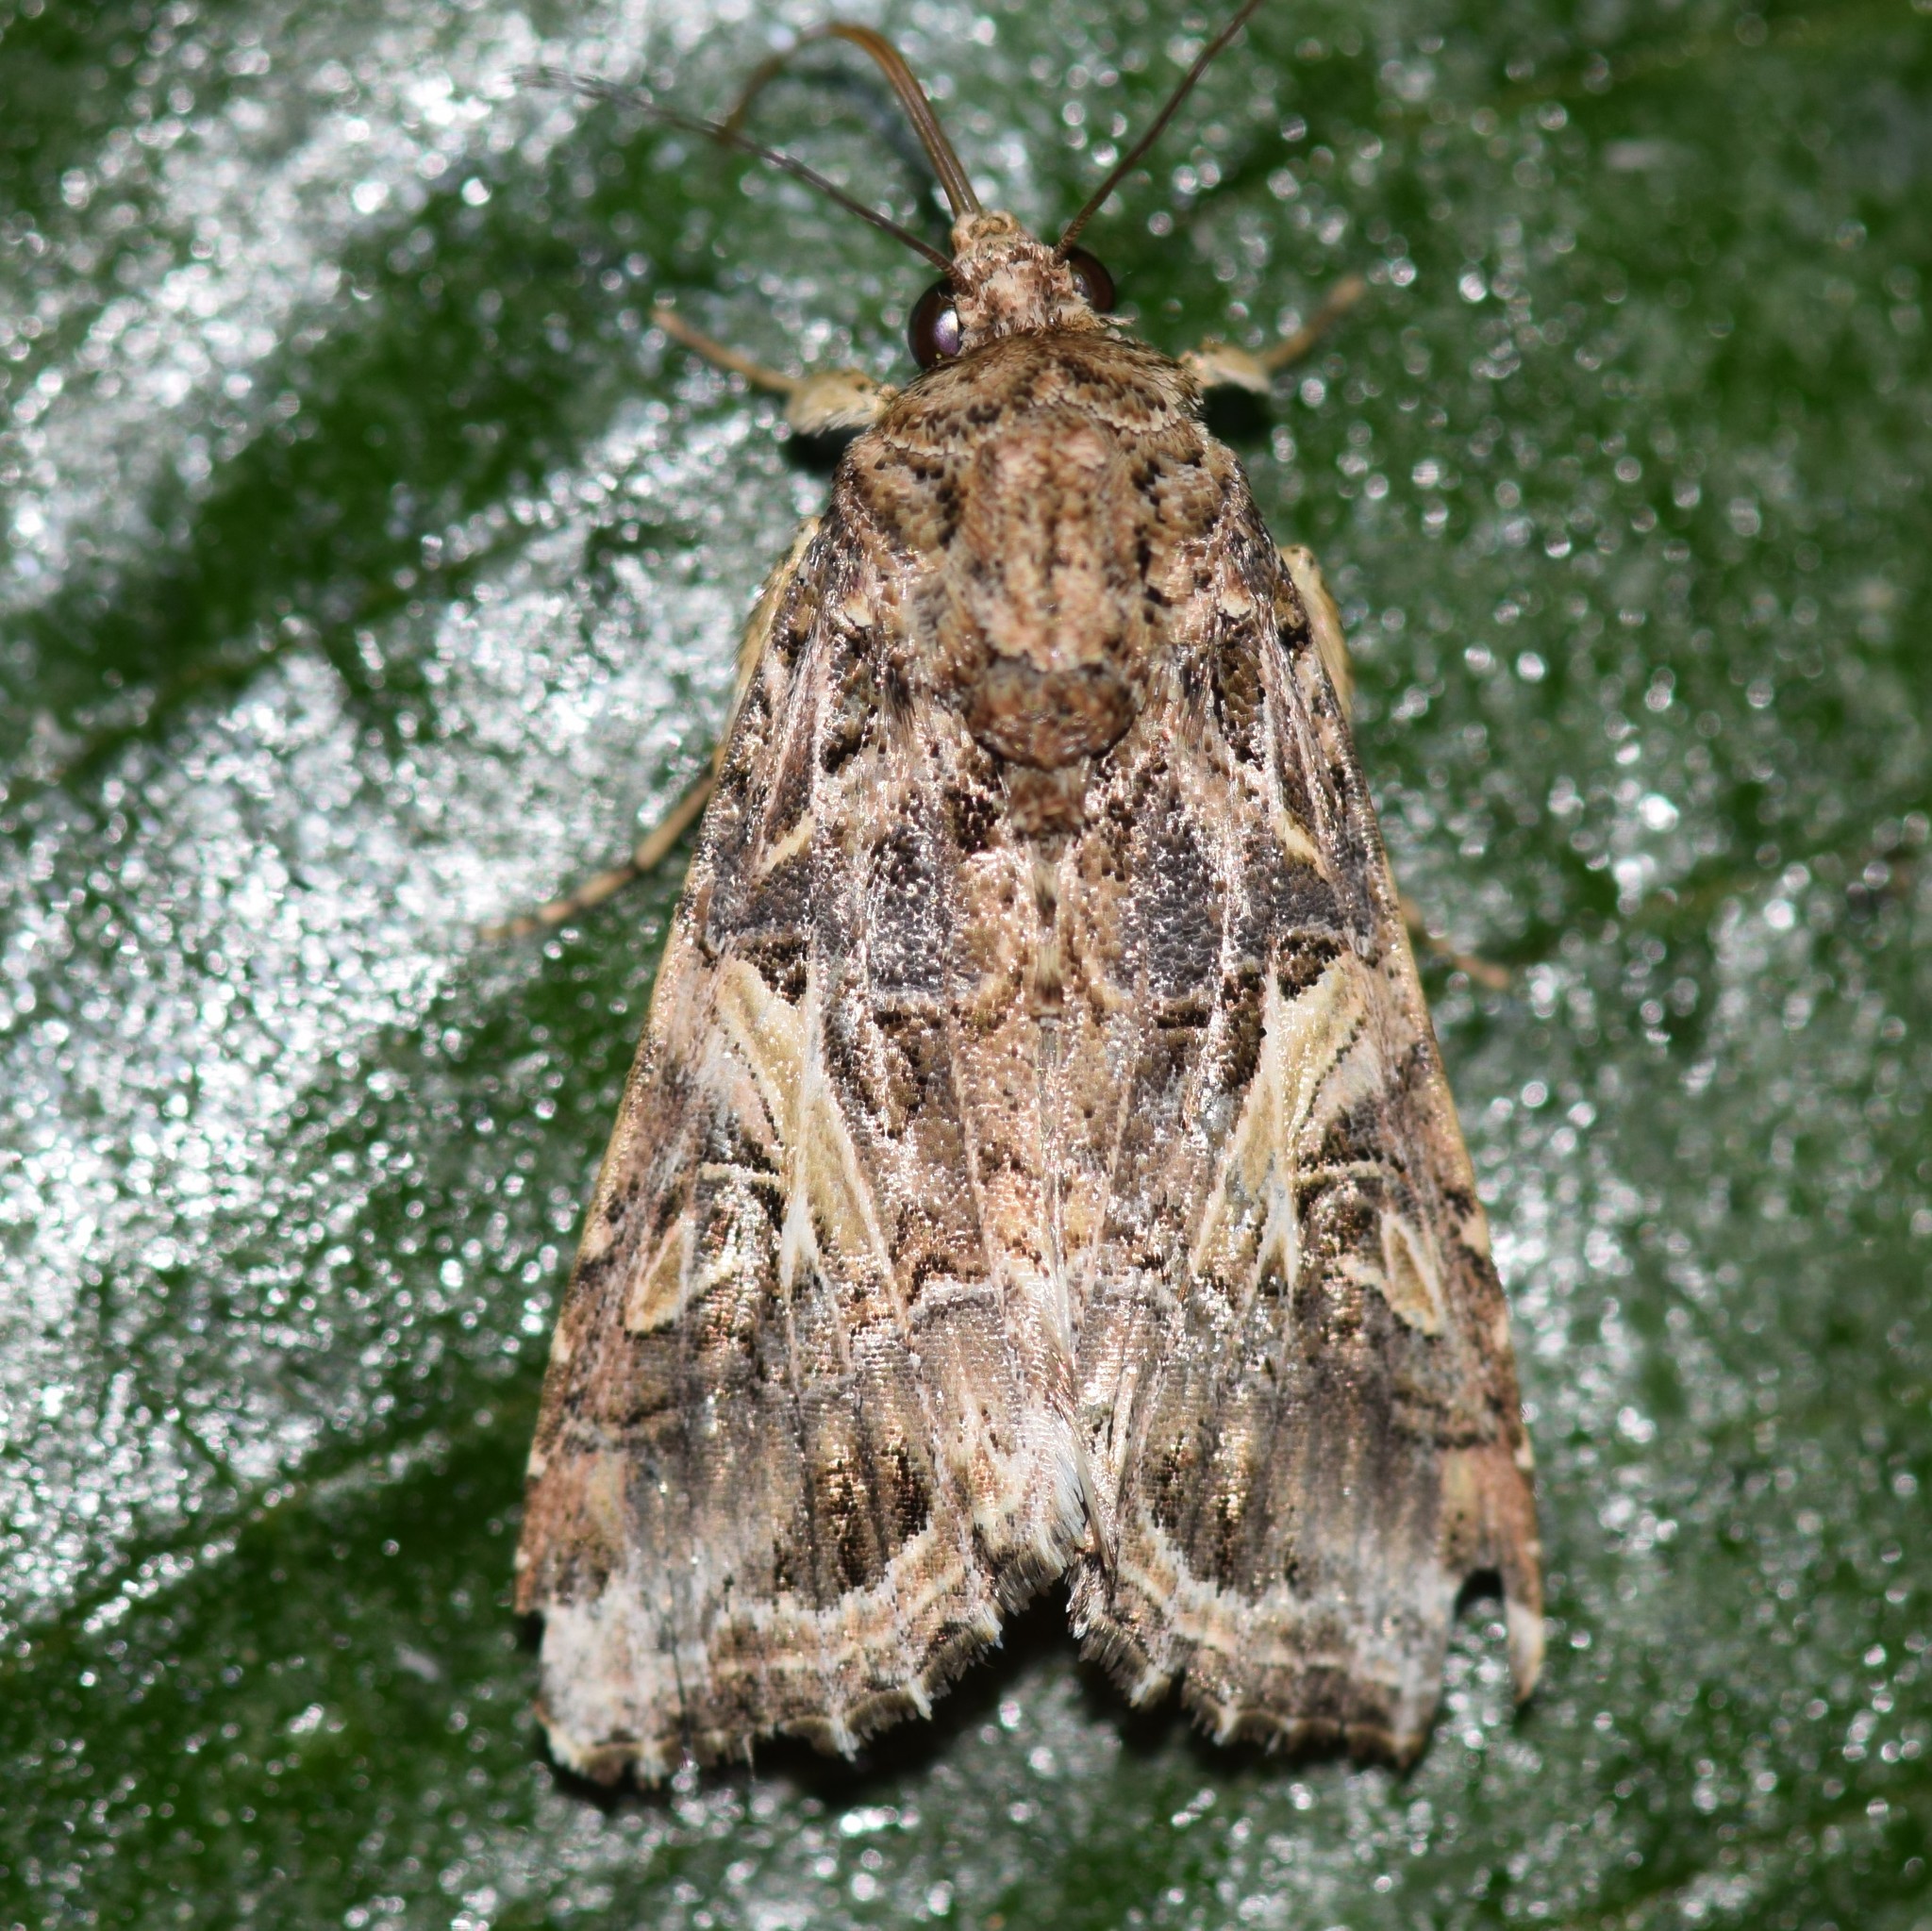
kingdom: Animalia
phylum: Arthropoda
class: Insecta
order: Lepidoptera
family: Noctuidae
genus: Spodoptera
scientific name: Spodoptera ornithogalli
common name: Yellow-striped armyworm
